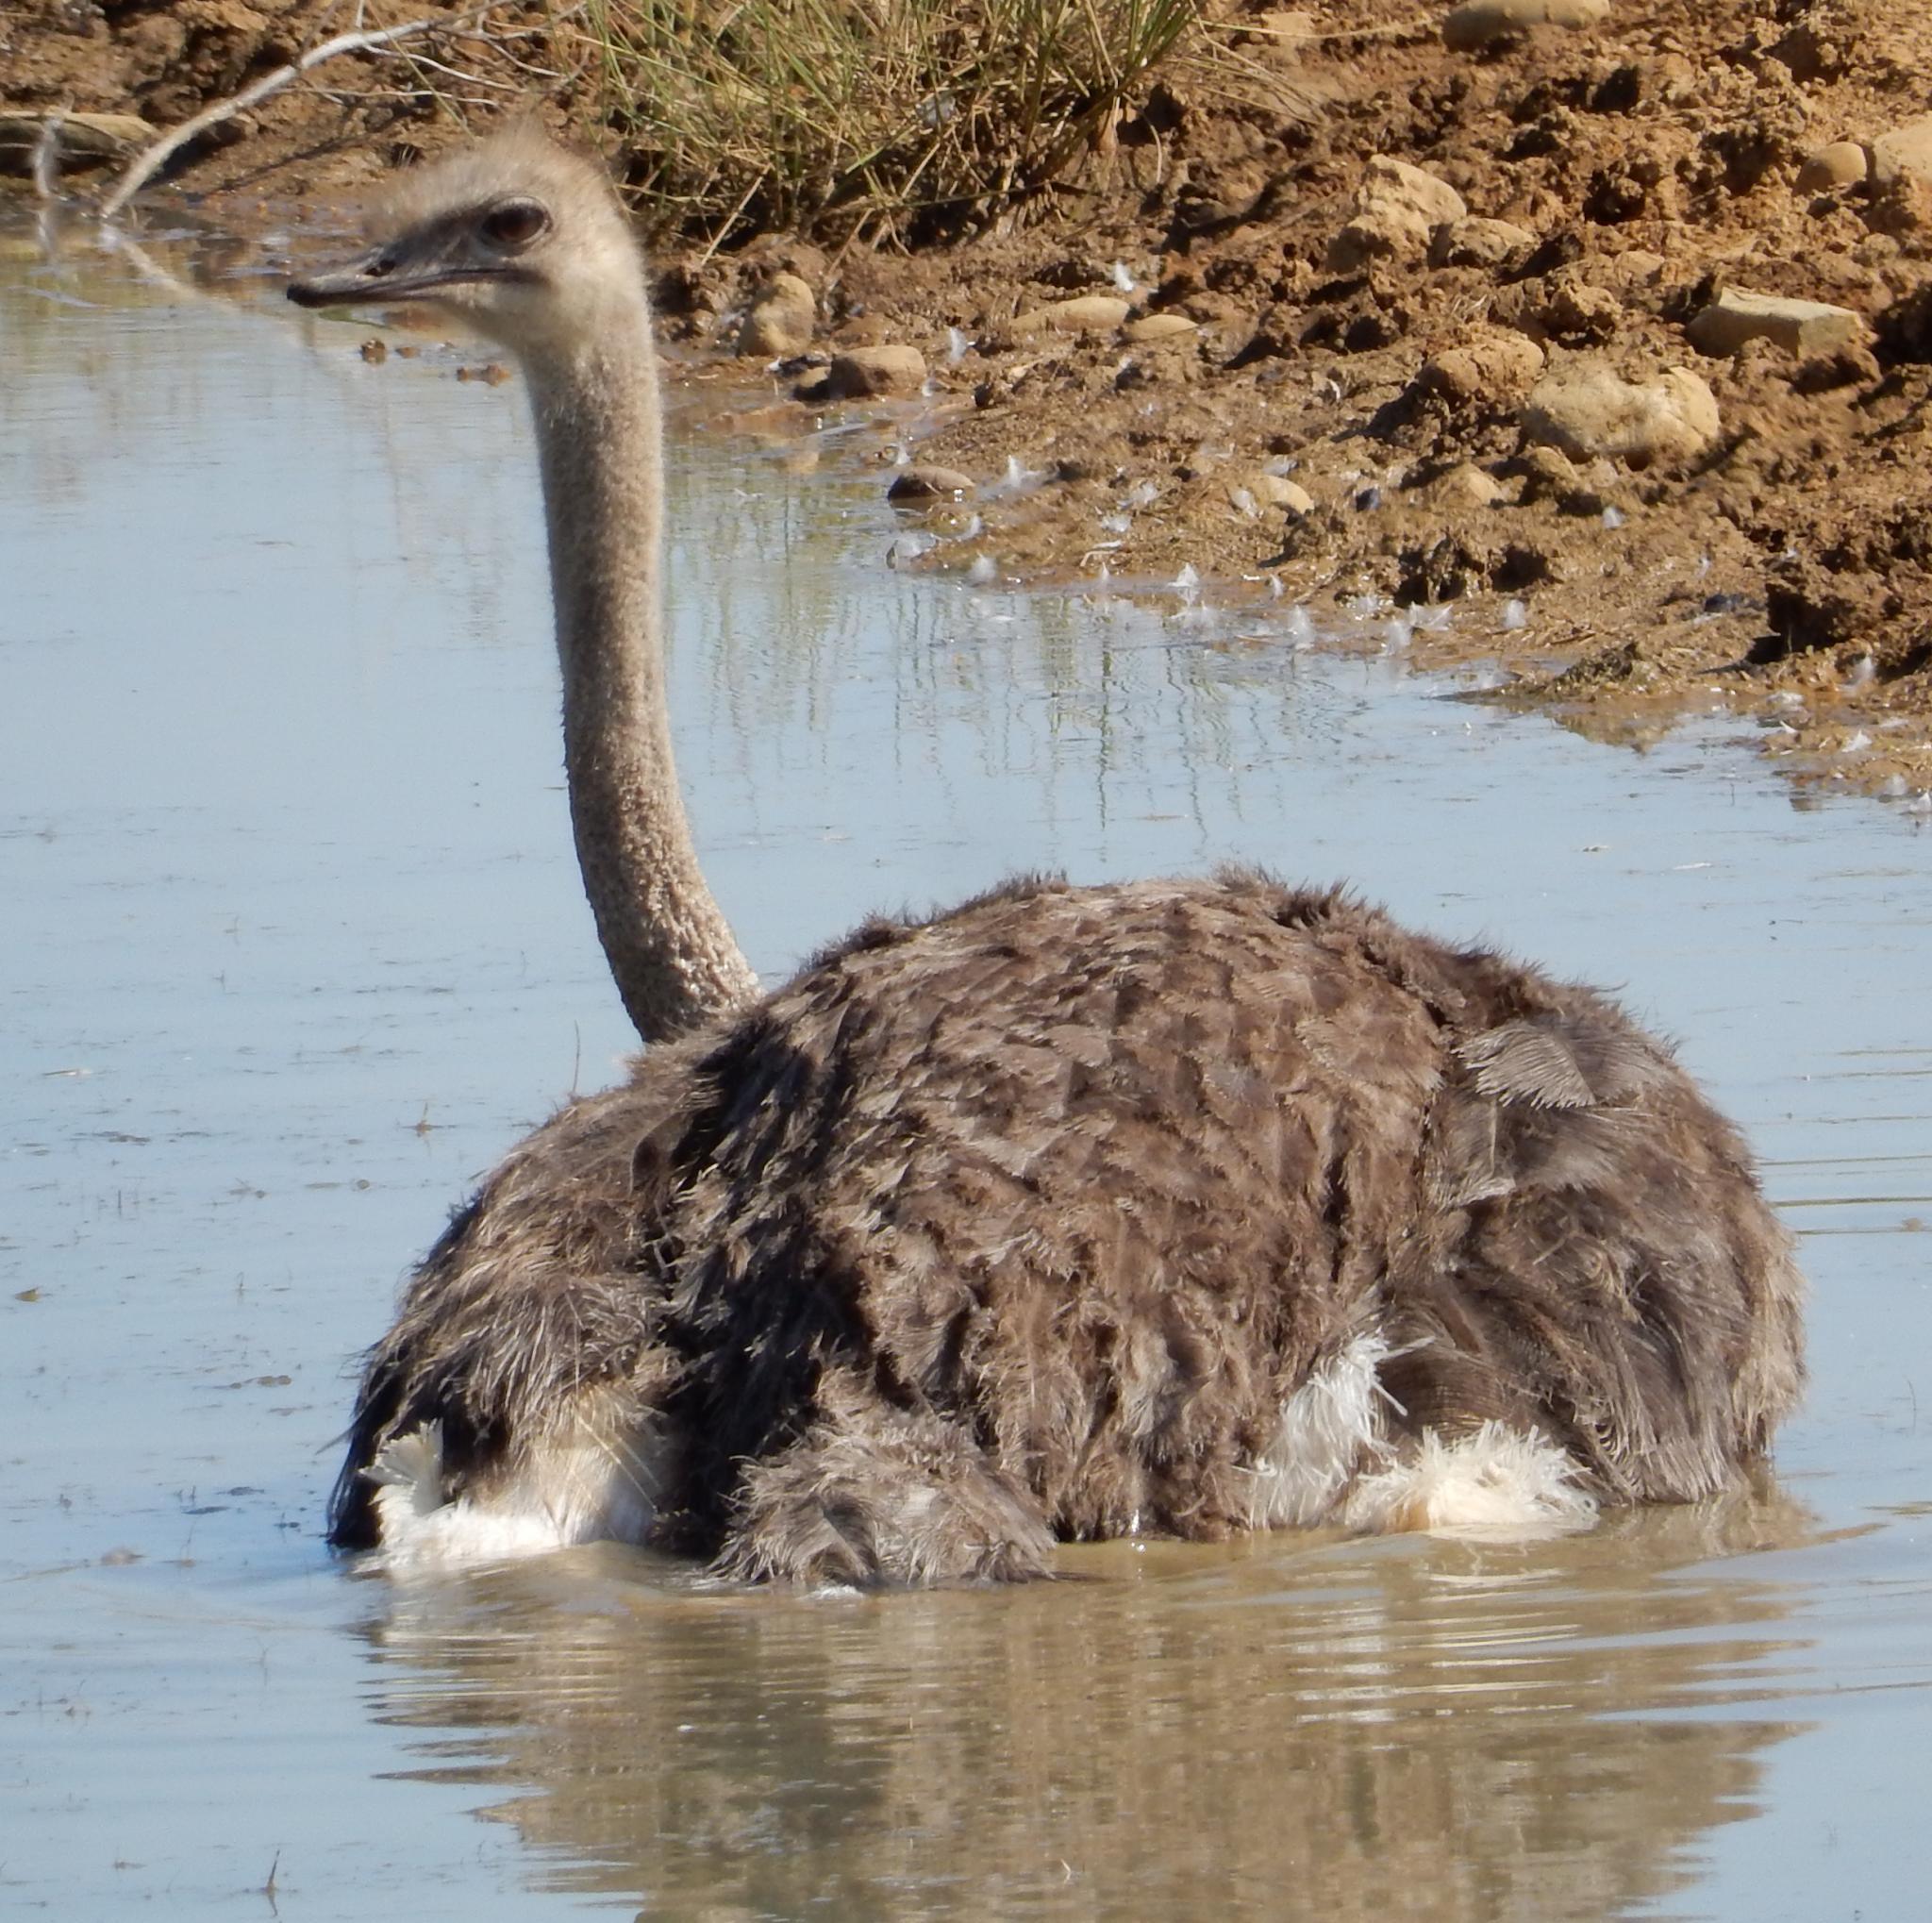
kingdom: Animalia
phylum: Chordata
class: Aves
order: Struthioniformes
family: Struthionidae
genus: Struthio
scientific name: Struthio camelus
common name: Common ostrich
